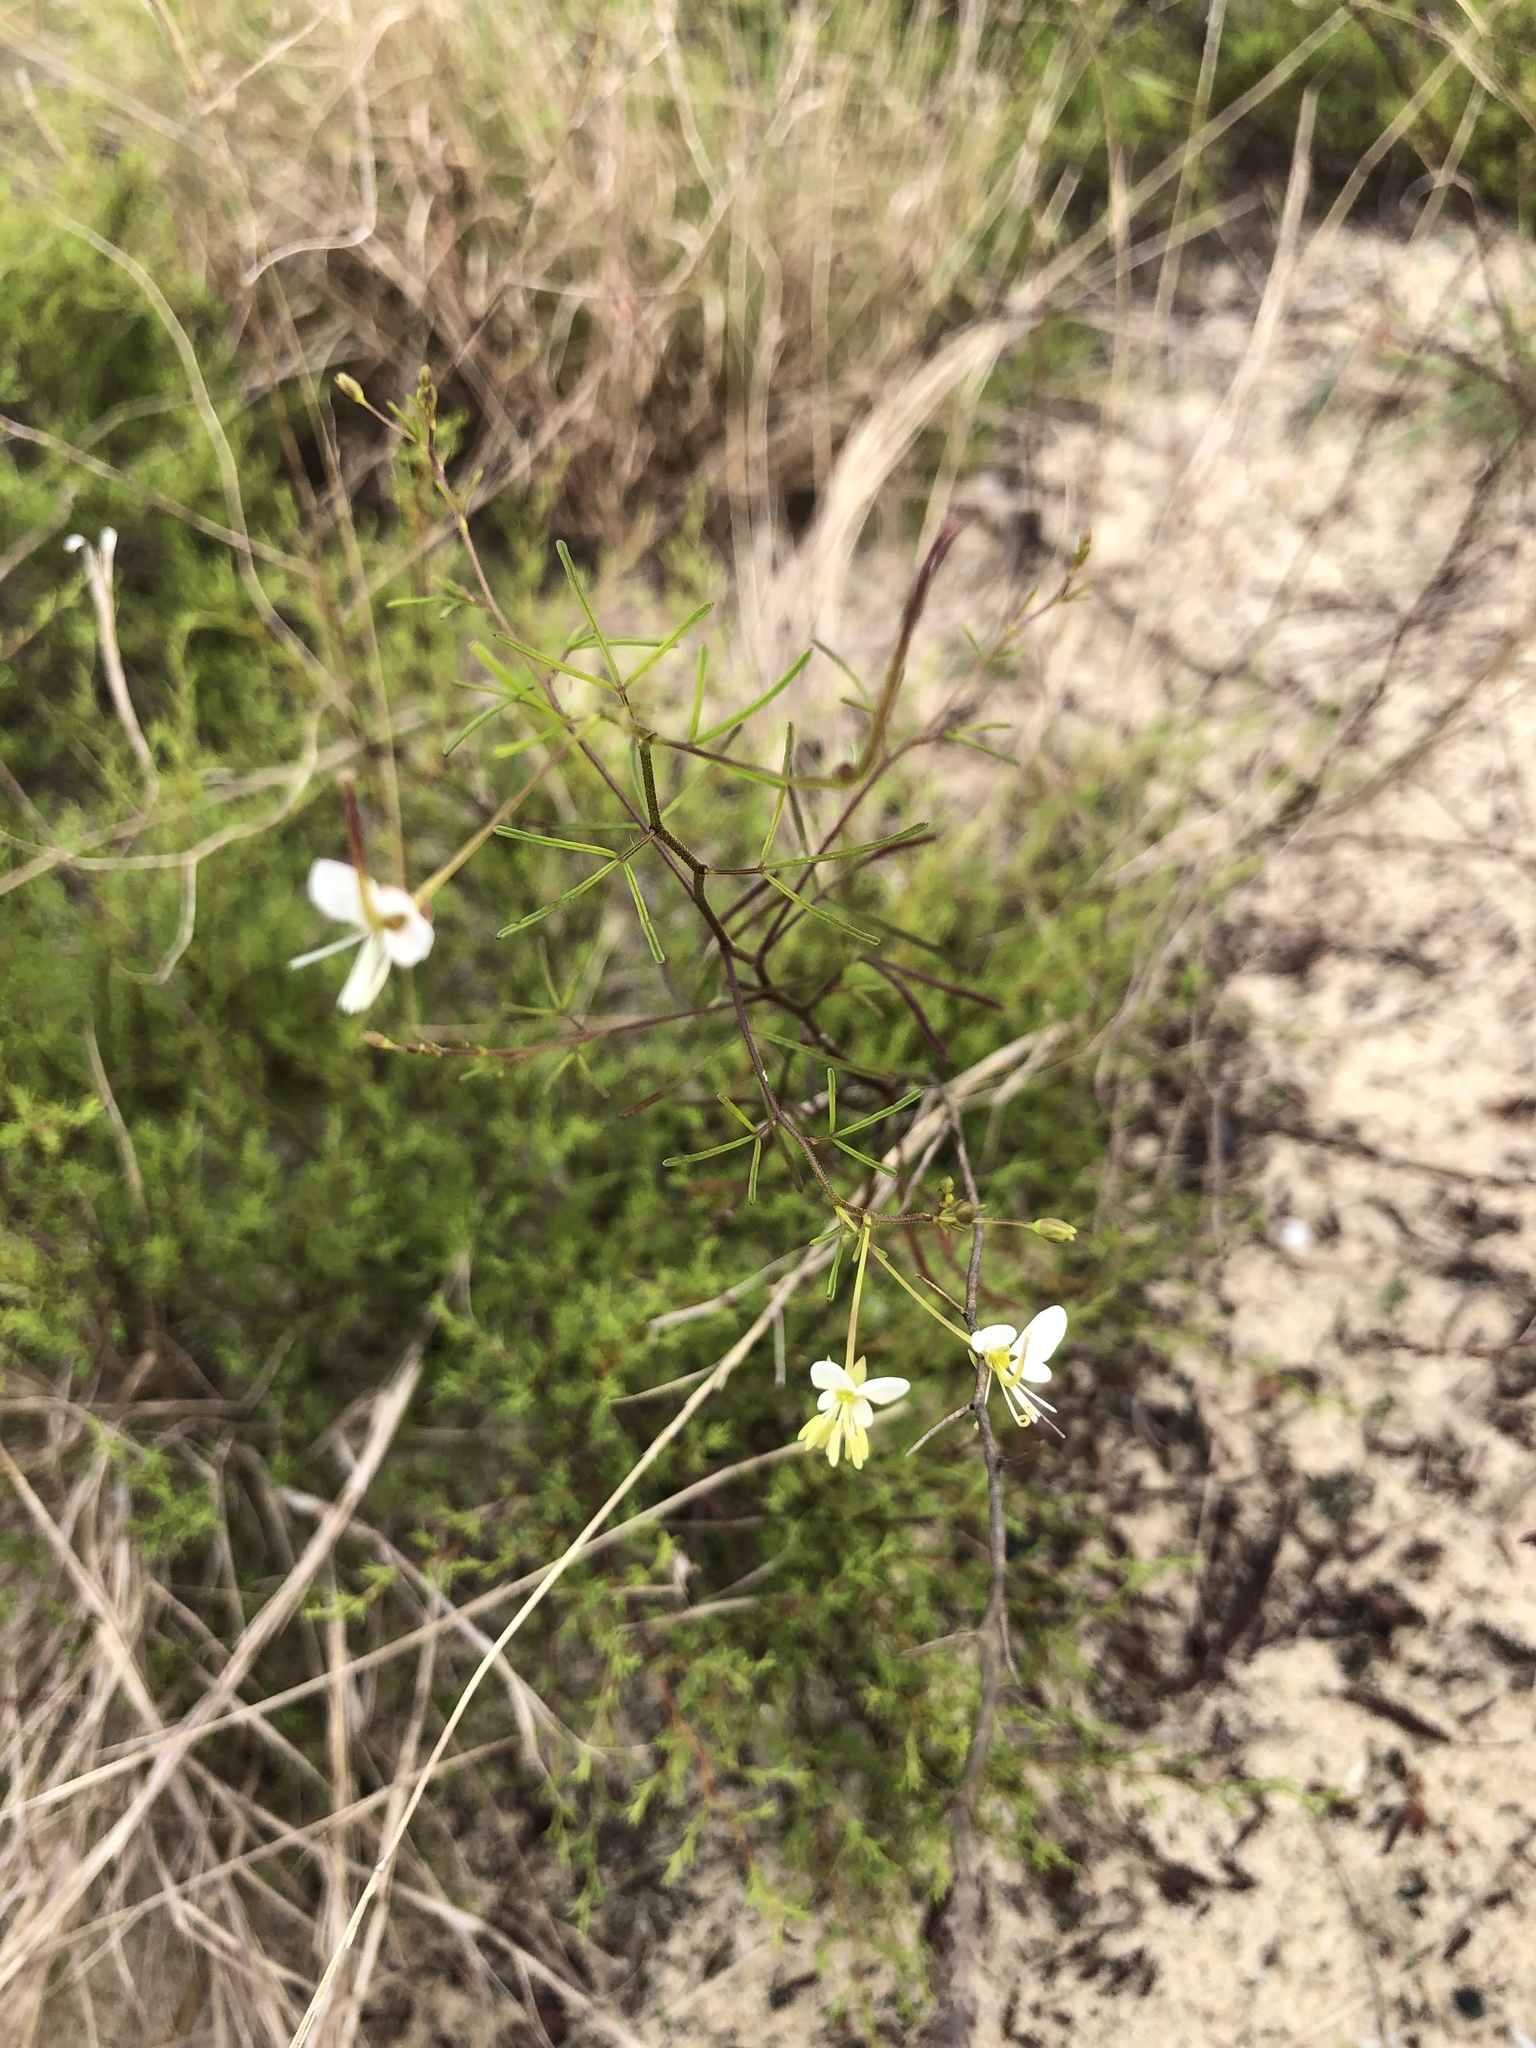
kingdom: Plantae
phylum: Tracheophyta
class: Magnoliopsida
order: Brassicales
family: Cleomaceae
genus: Polanisia
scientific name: Polanisia tenuifolia
